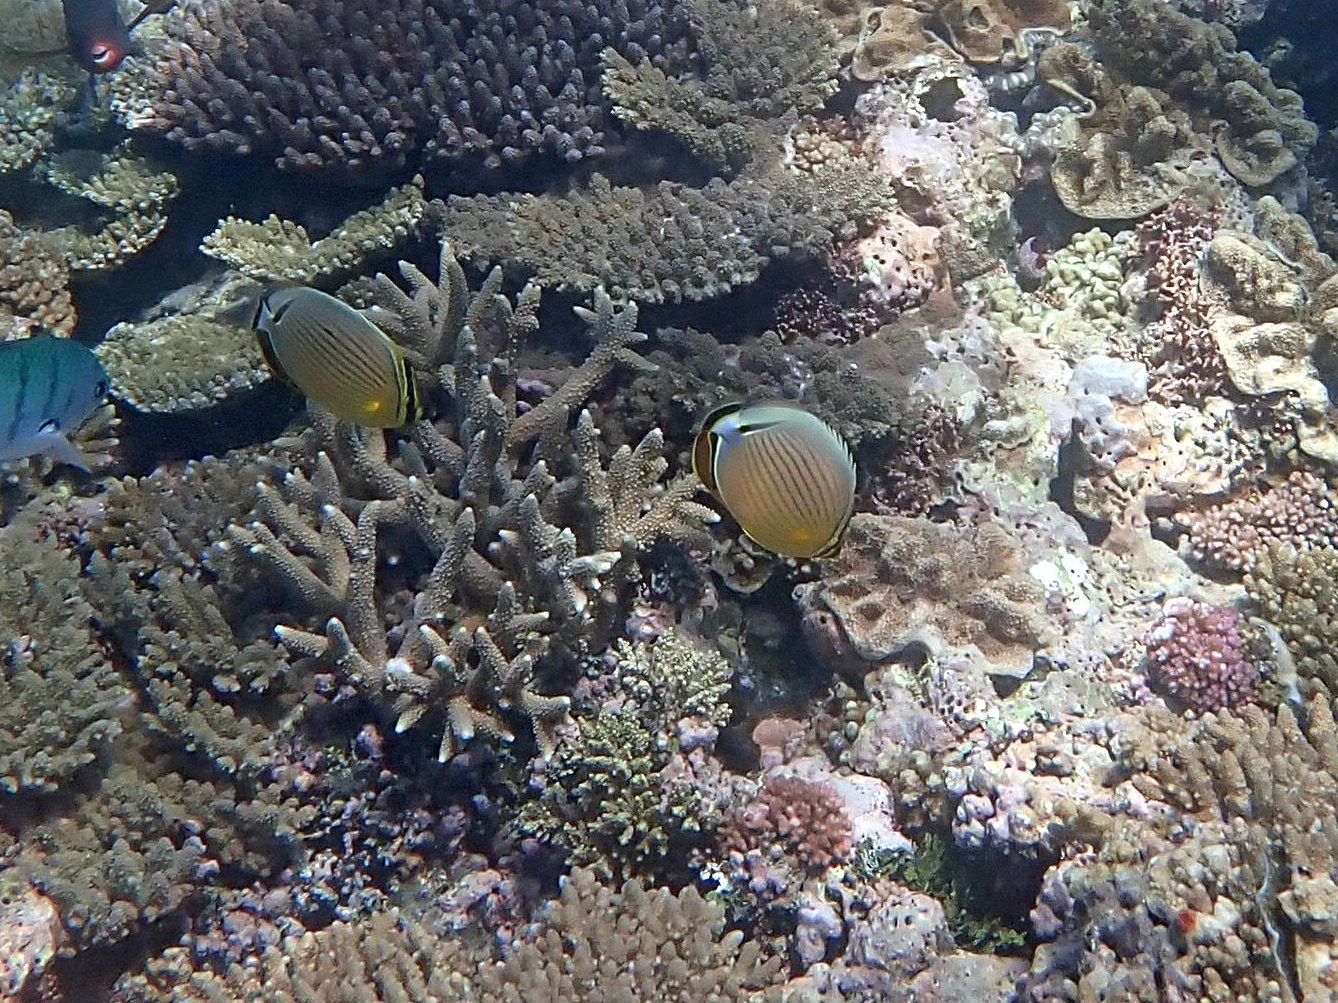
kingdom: Animalia
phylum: Chordata
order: Perciformes
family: Chaetodontidae
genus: Chaetodon
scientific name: Chaetodon lunulatus
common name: Redfin butterflyfish
